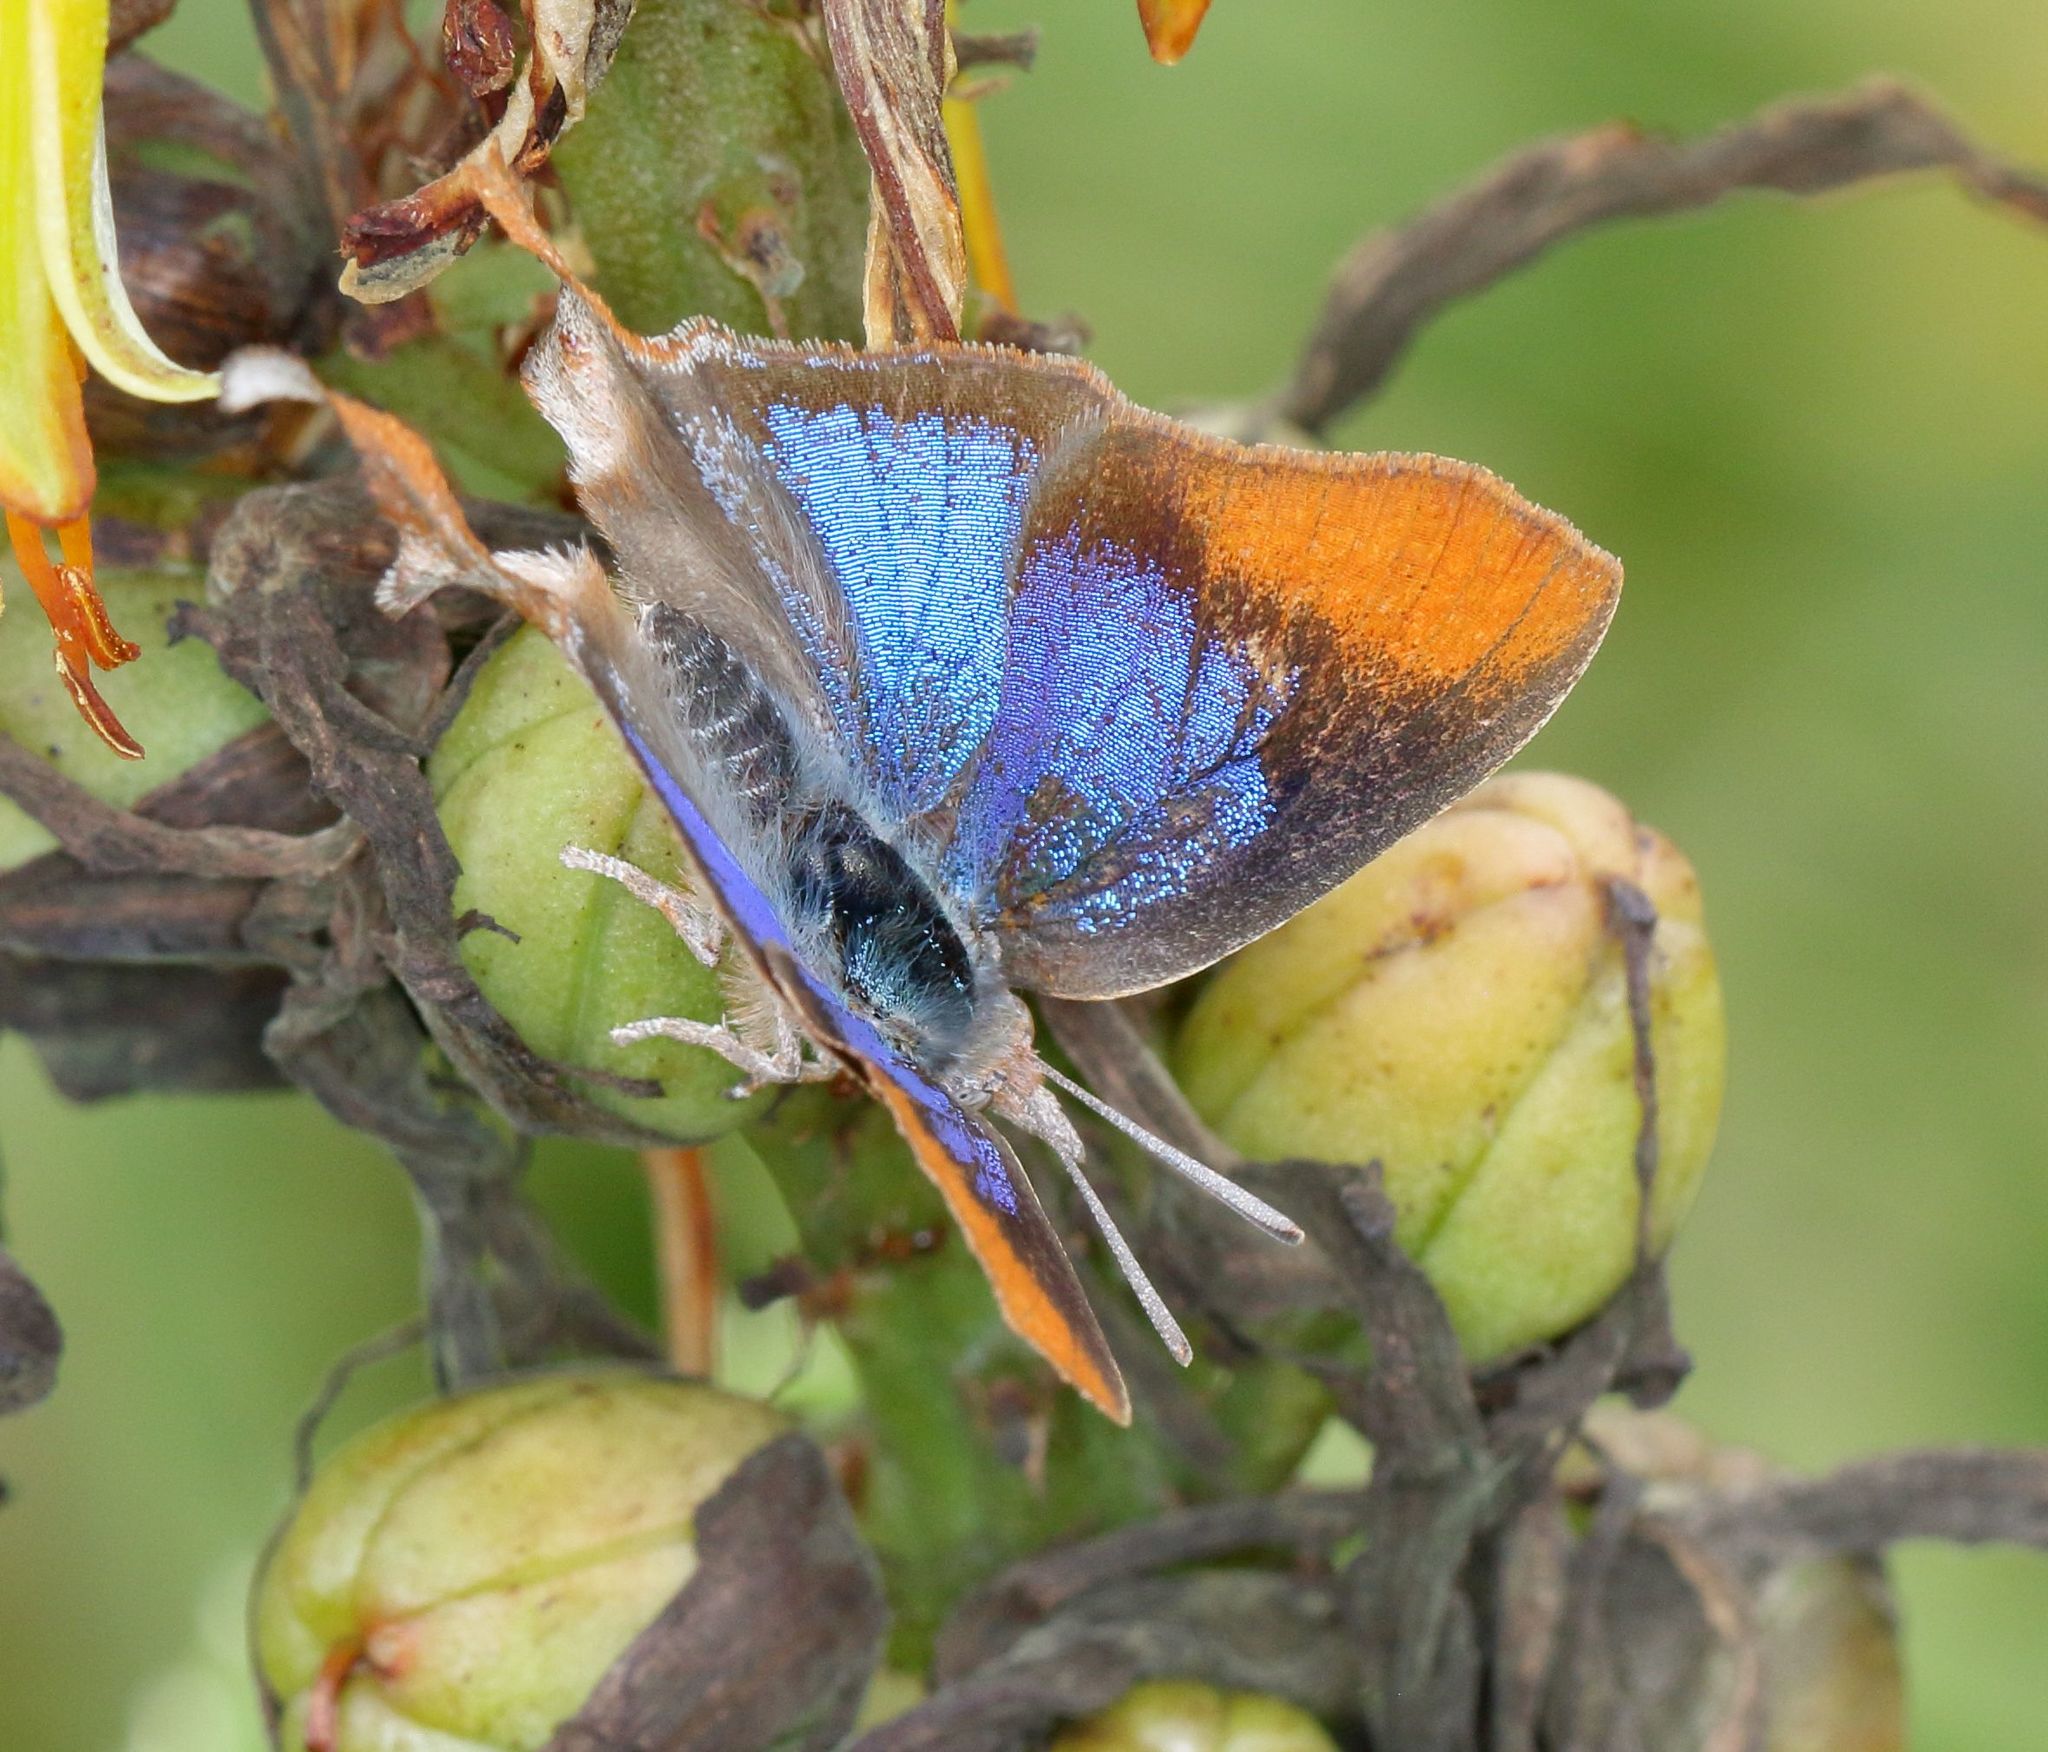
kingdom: Animalia
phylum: Arthropoda
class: Insecta
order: Lepidoptera
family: Lycaenidae
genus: Myrina
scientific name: Myrina silenus
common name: Amber fig-tree blue
